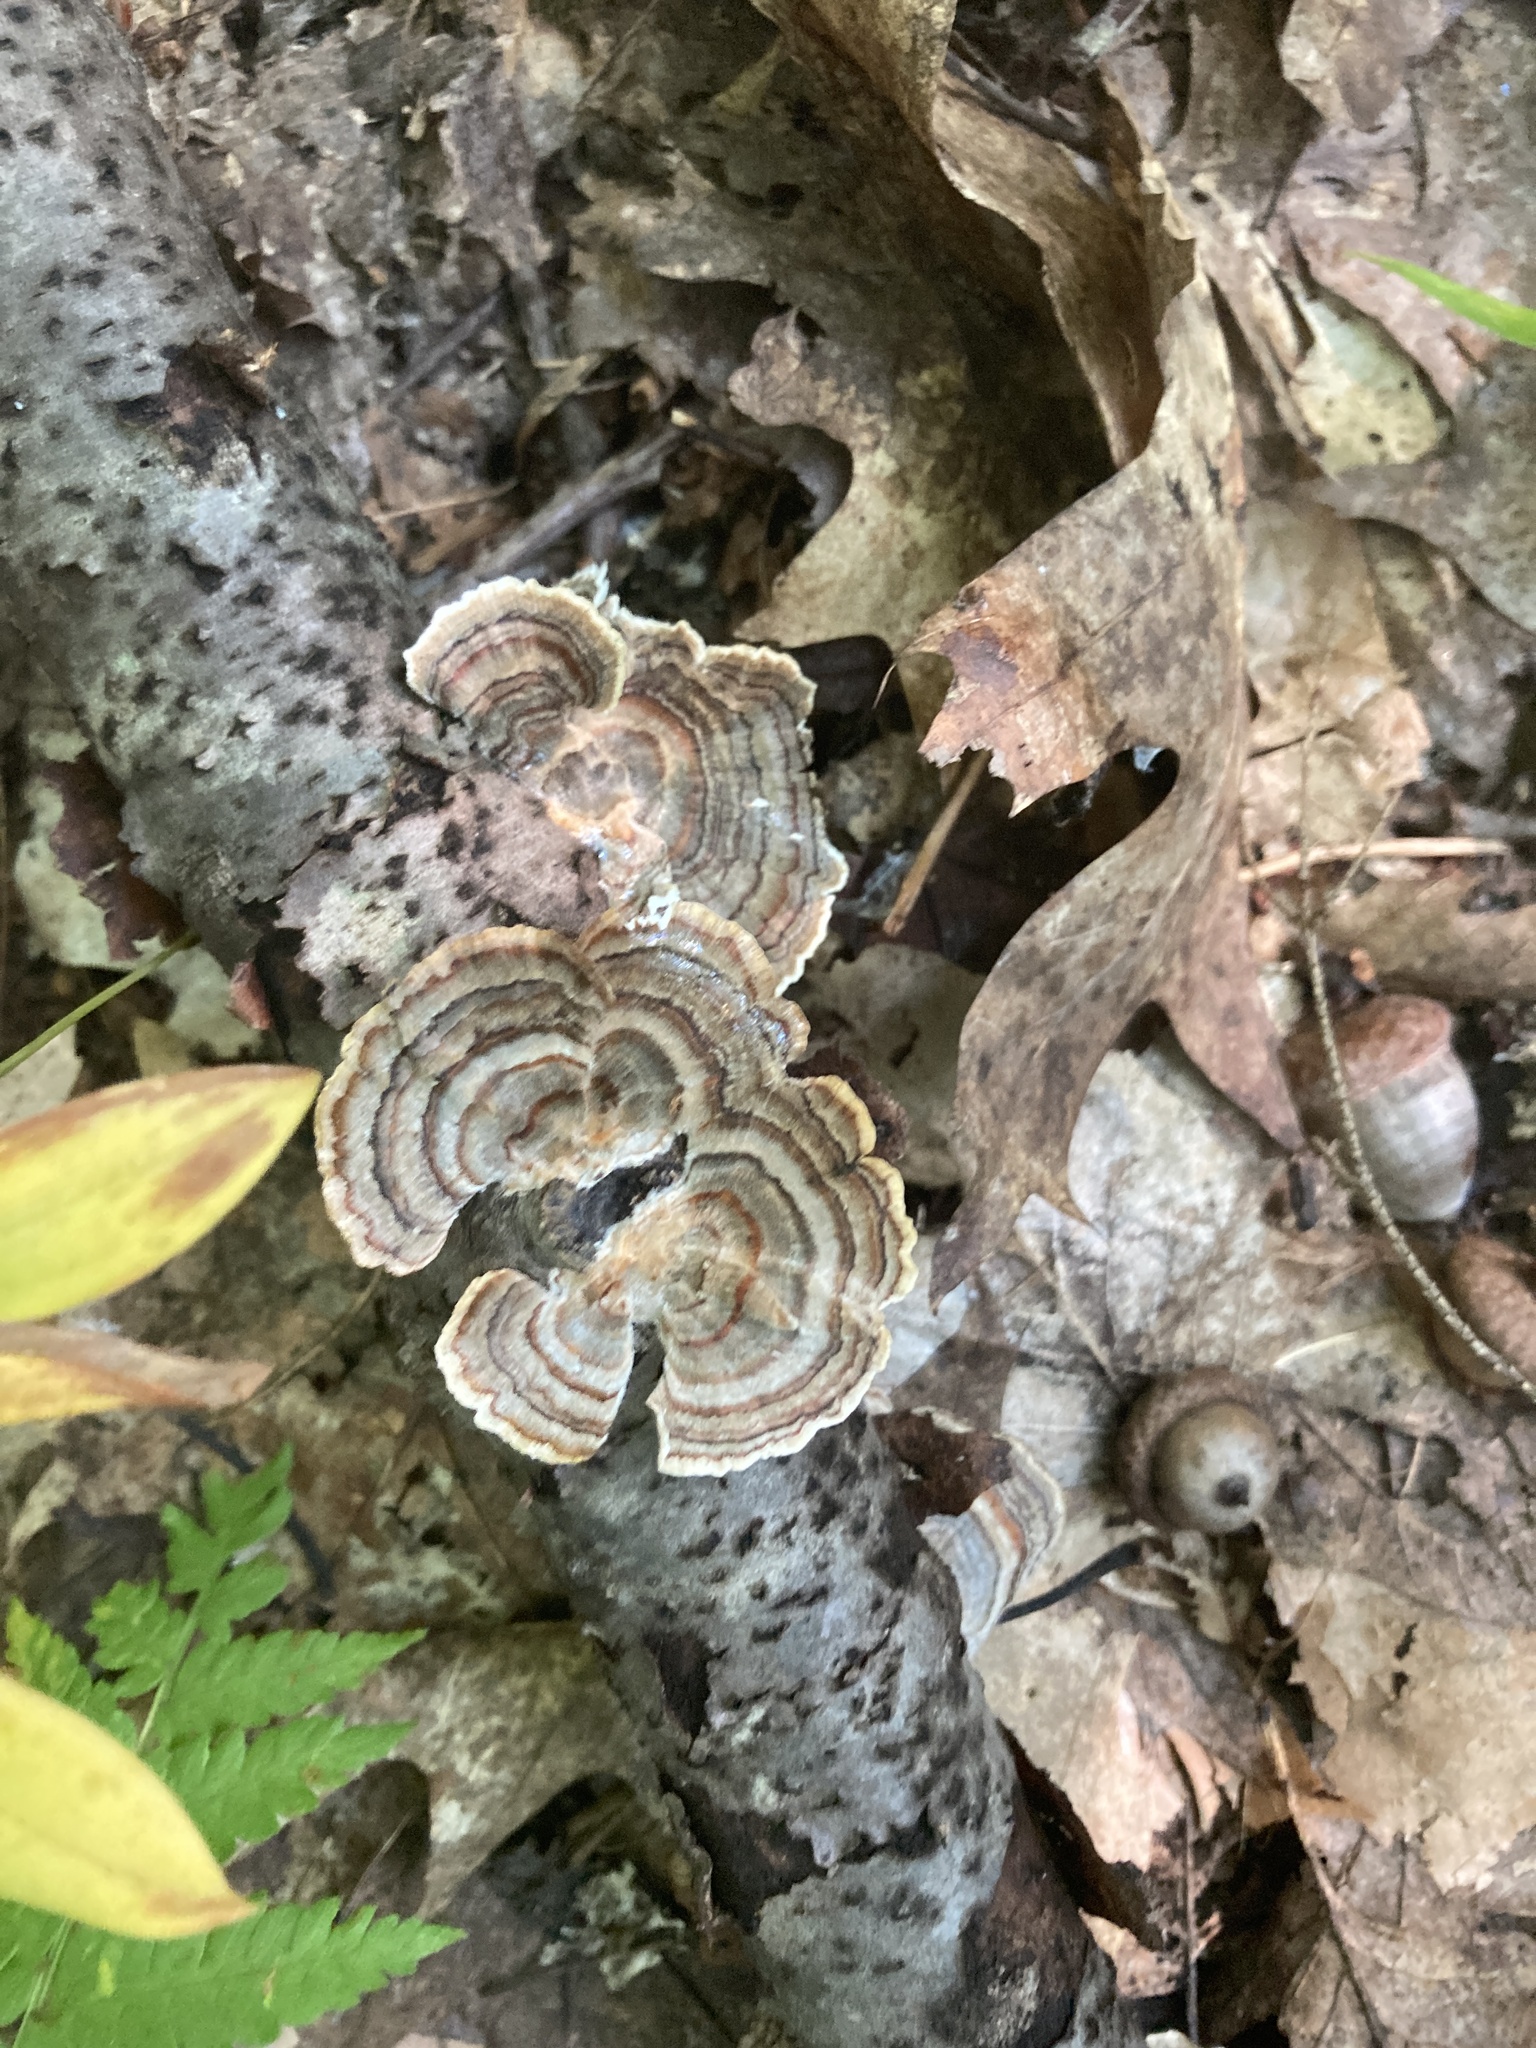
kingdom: Fungi
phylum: Basidiomycota
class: Agaricomycetes
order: Polyporales
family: Polyporaceae
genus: Trametes
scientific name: Trametes versicolor
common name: Turkeytail
